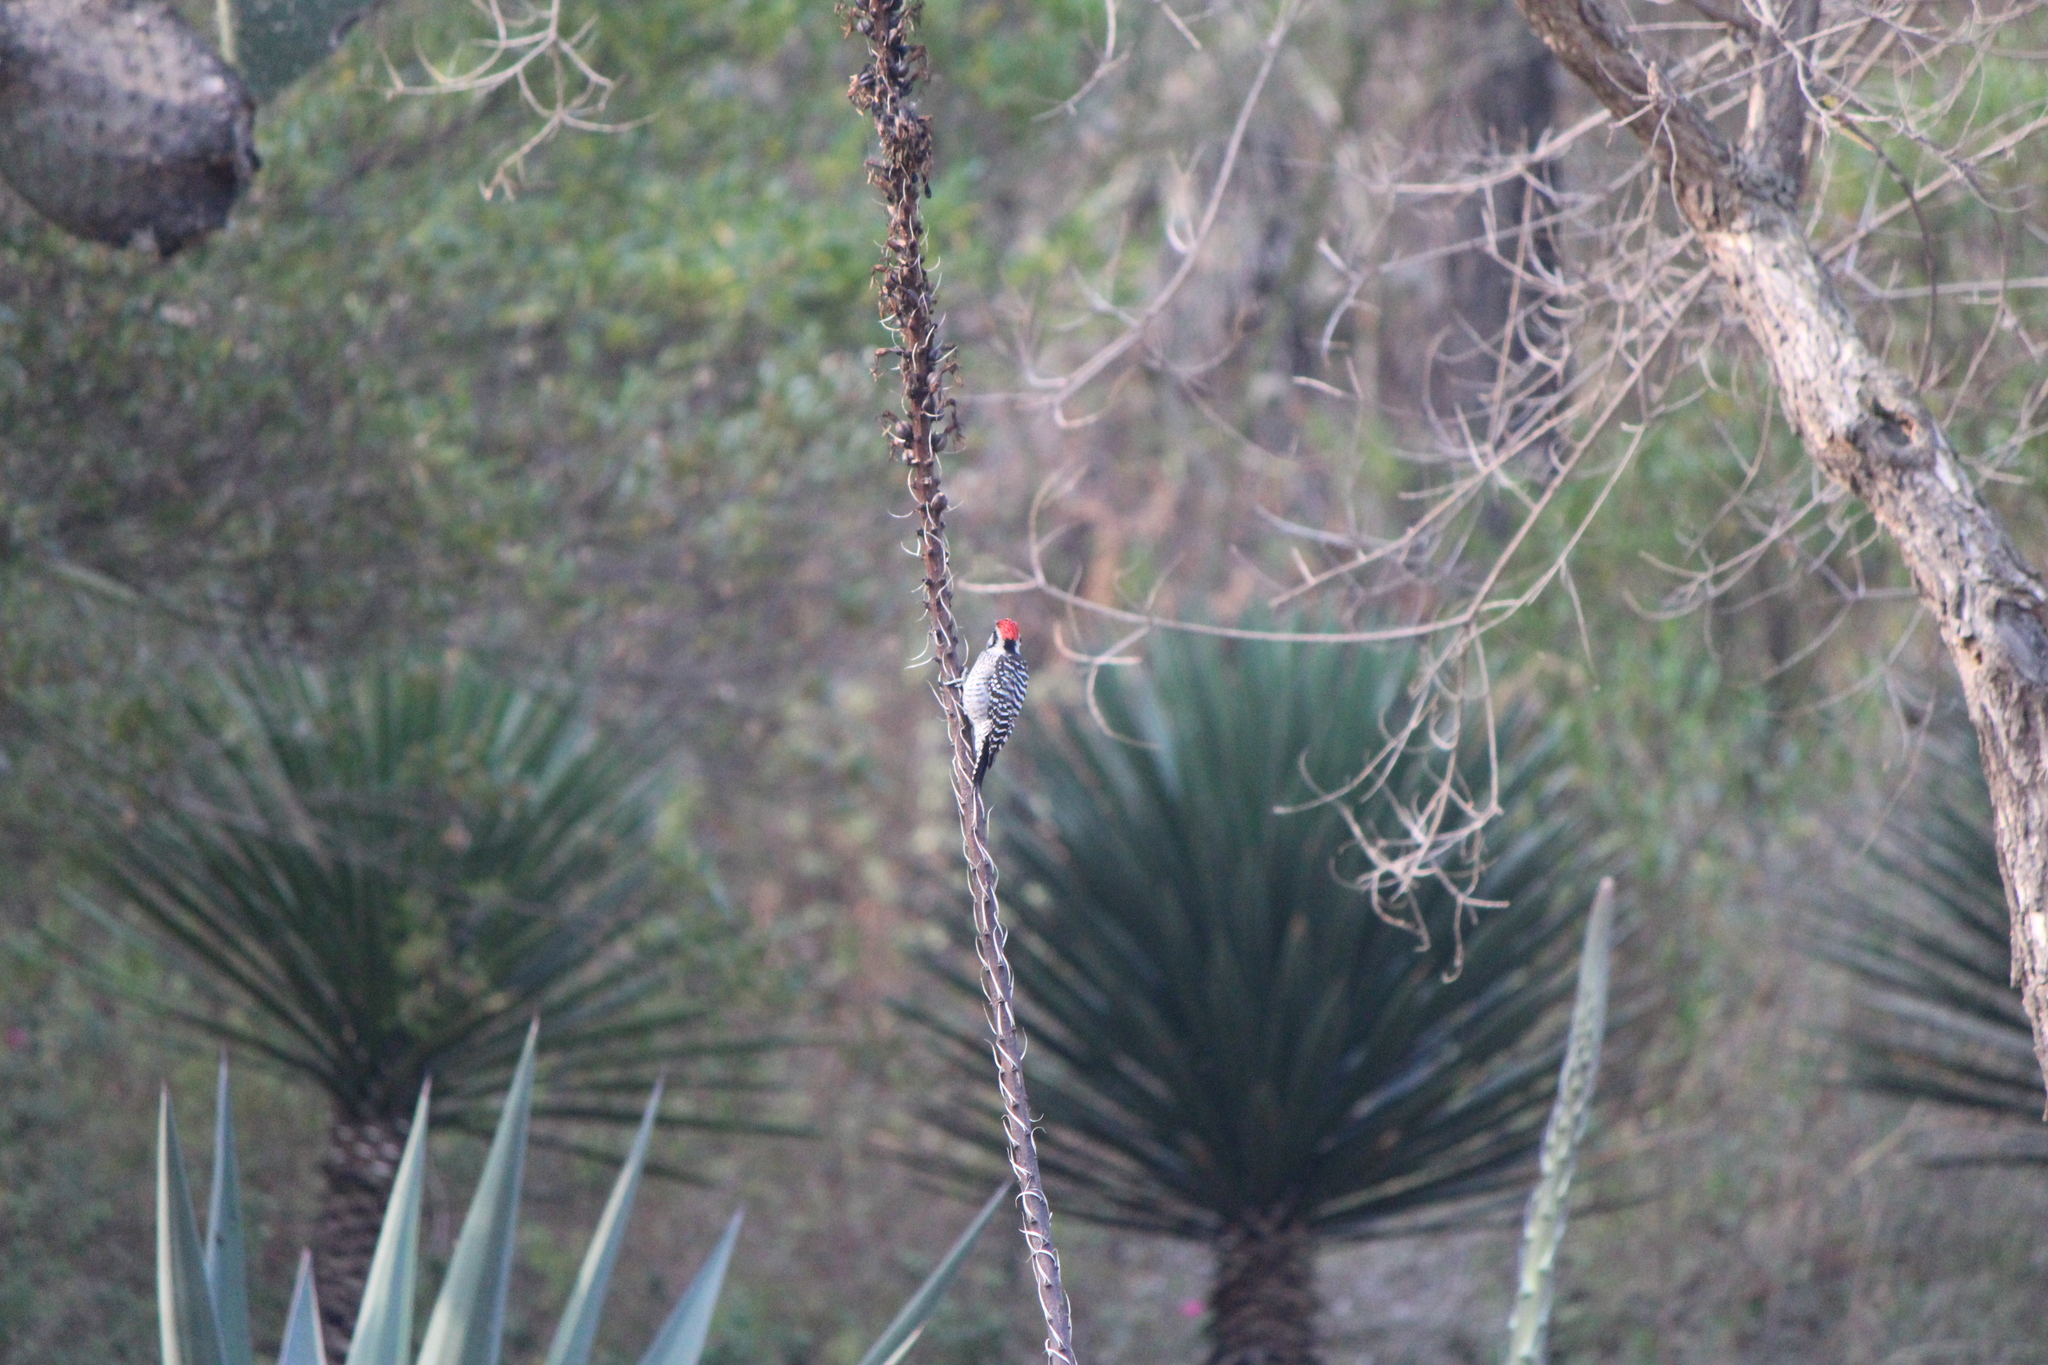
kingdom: Animalia
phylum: Chordata
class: Aves
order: Piciformes
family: Picidae
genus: Dryobates
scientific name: Dryobates scalaris
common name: Ladder-backed woodpecker
